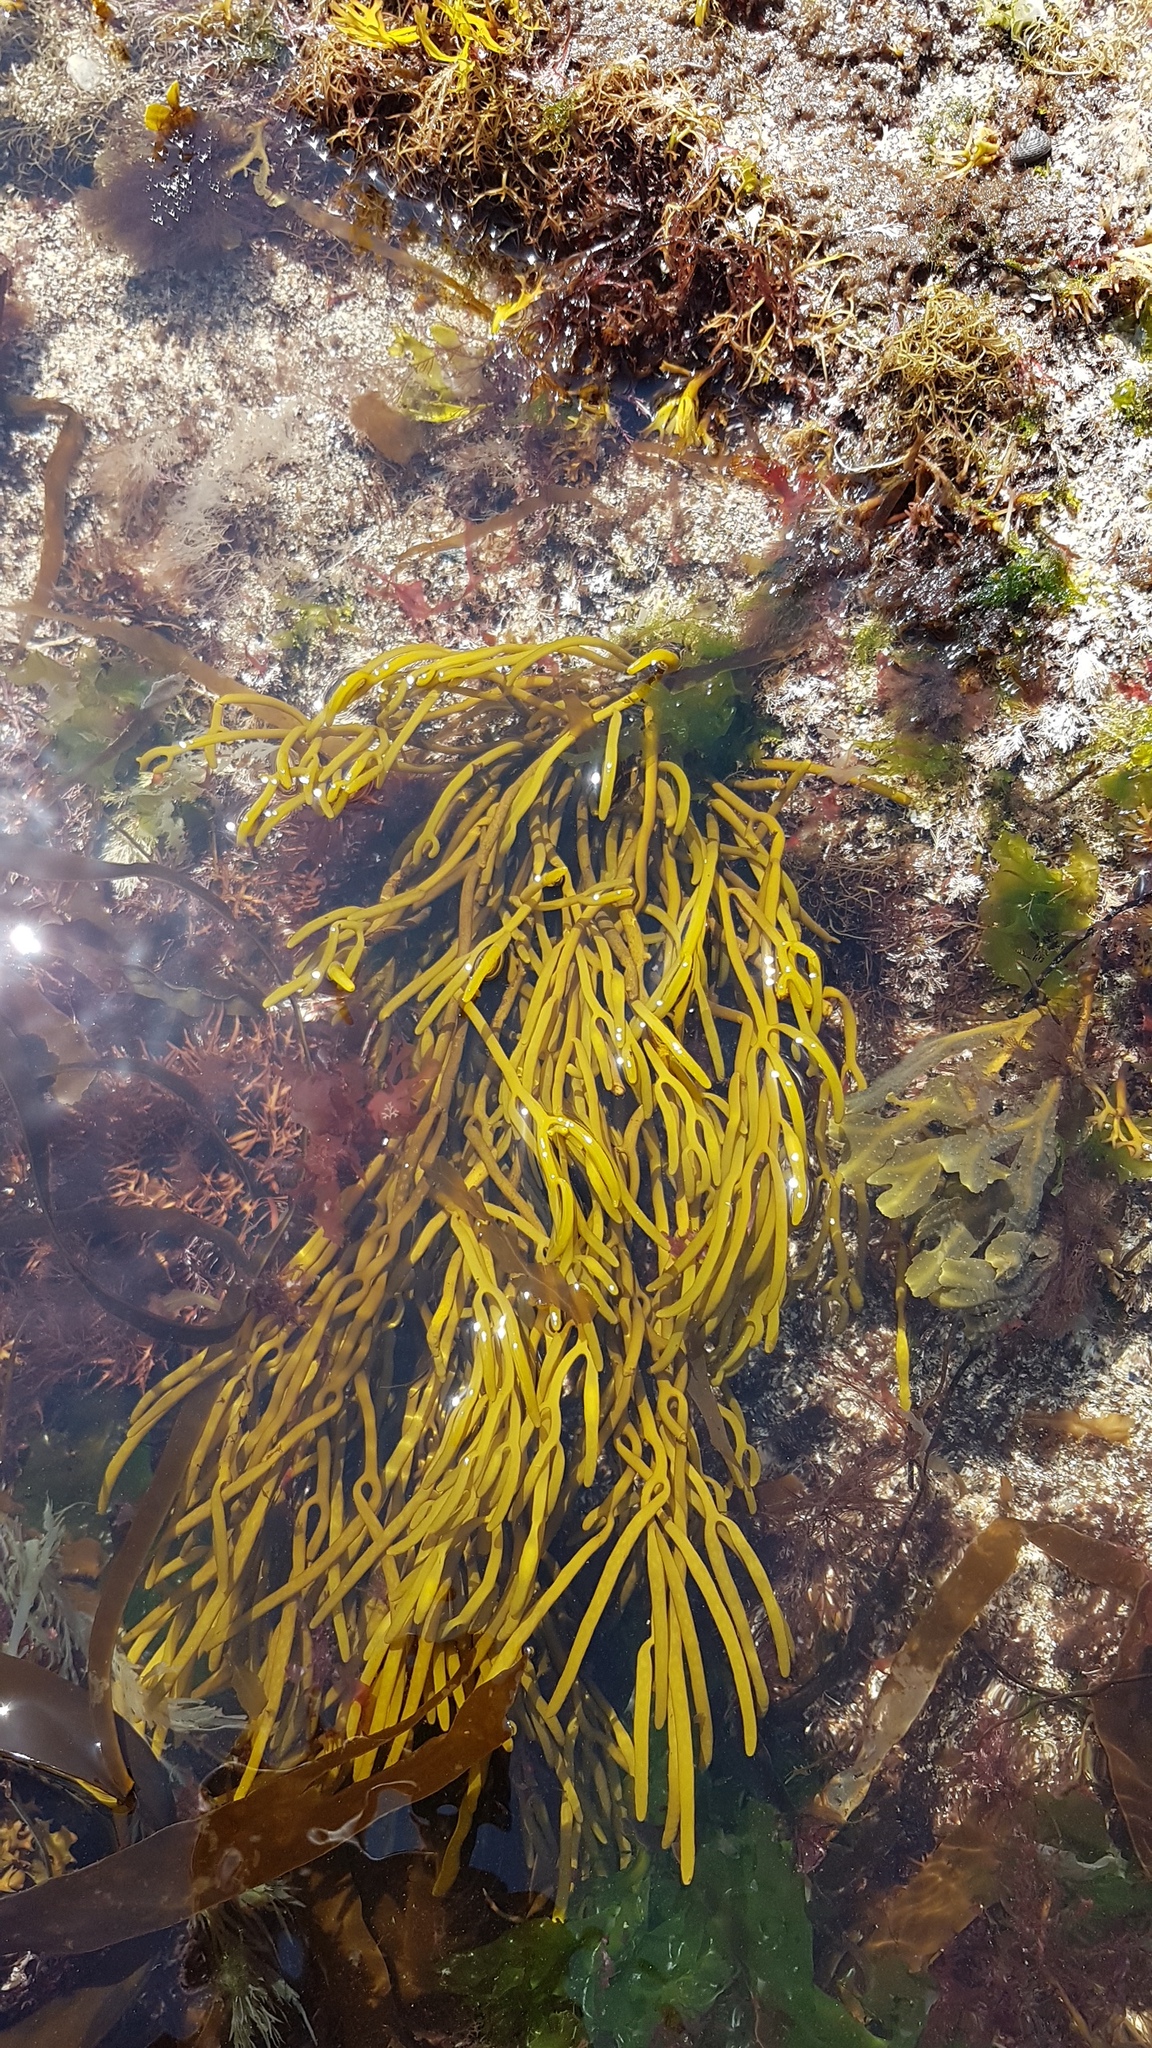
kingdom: Chromista
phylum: Ochrophyta
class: Phaeophyceae
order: Fucales
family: Sargassaceae
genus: Bifurcaria
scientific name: Bifurcaria bifurcata
